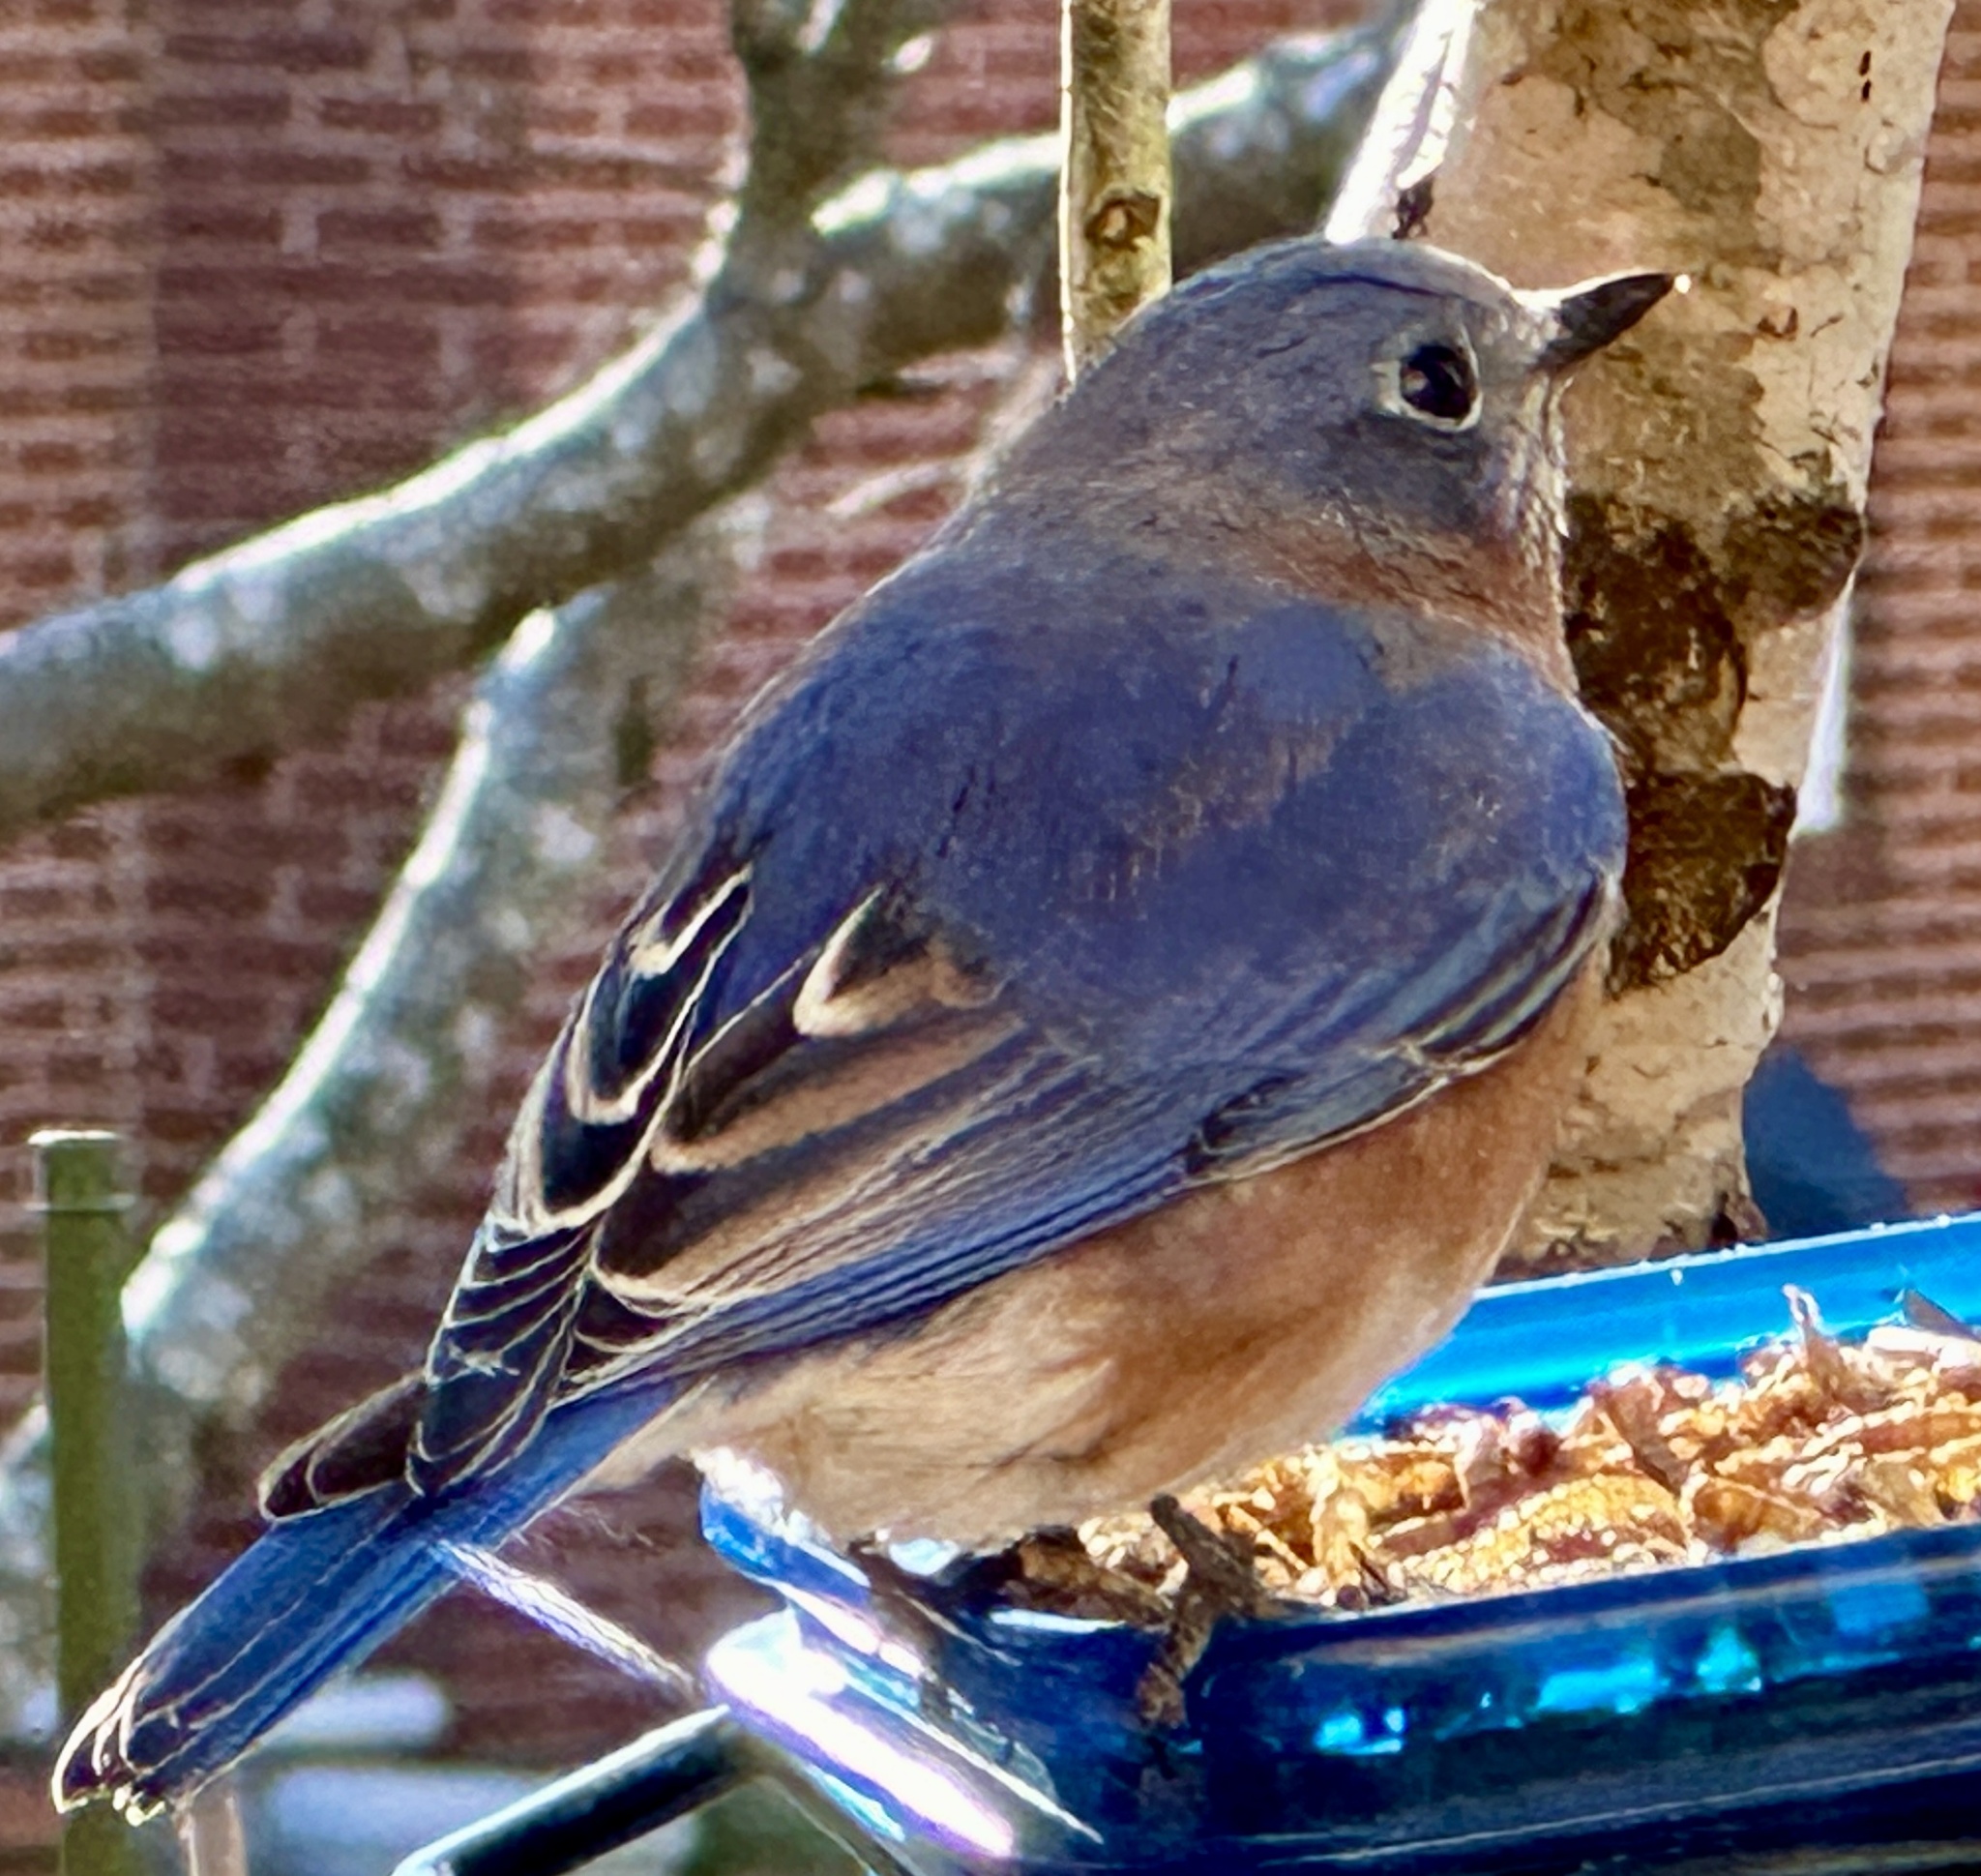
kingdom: Animalia
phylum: Chordata
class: Aves
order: Passeriformes
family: Turdidae
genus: Sialia
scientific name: Sialia sialis
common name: Eastern bluebird
